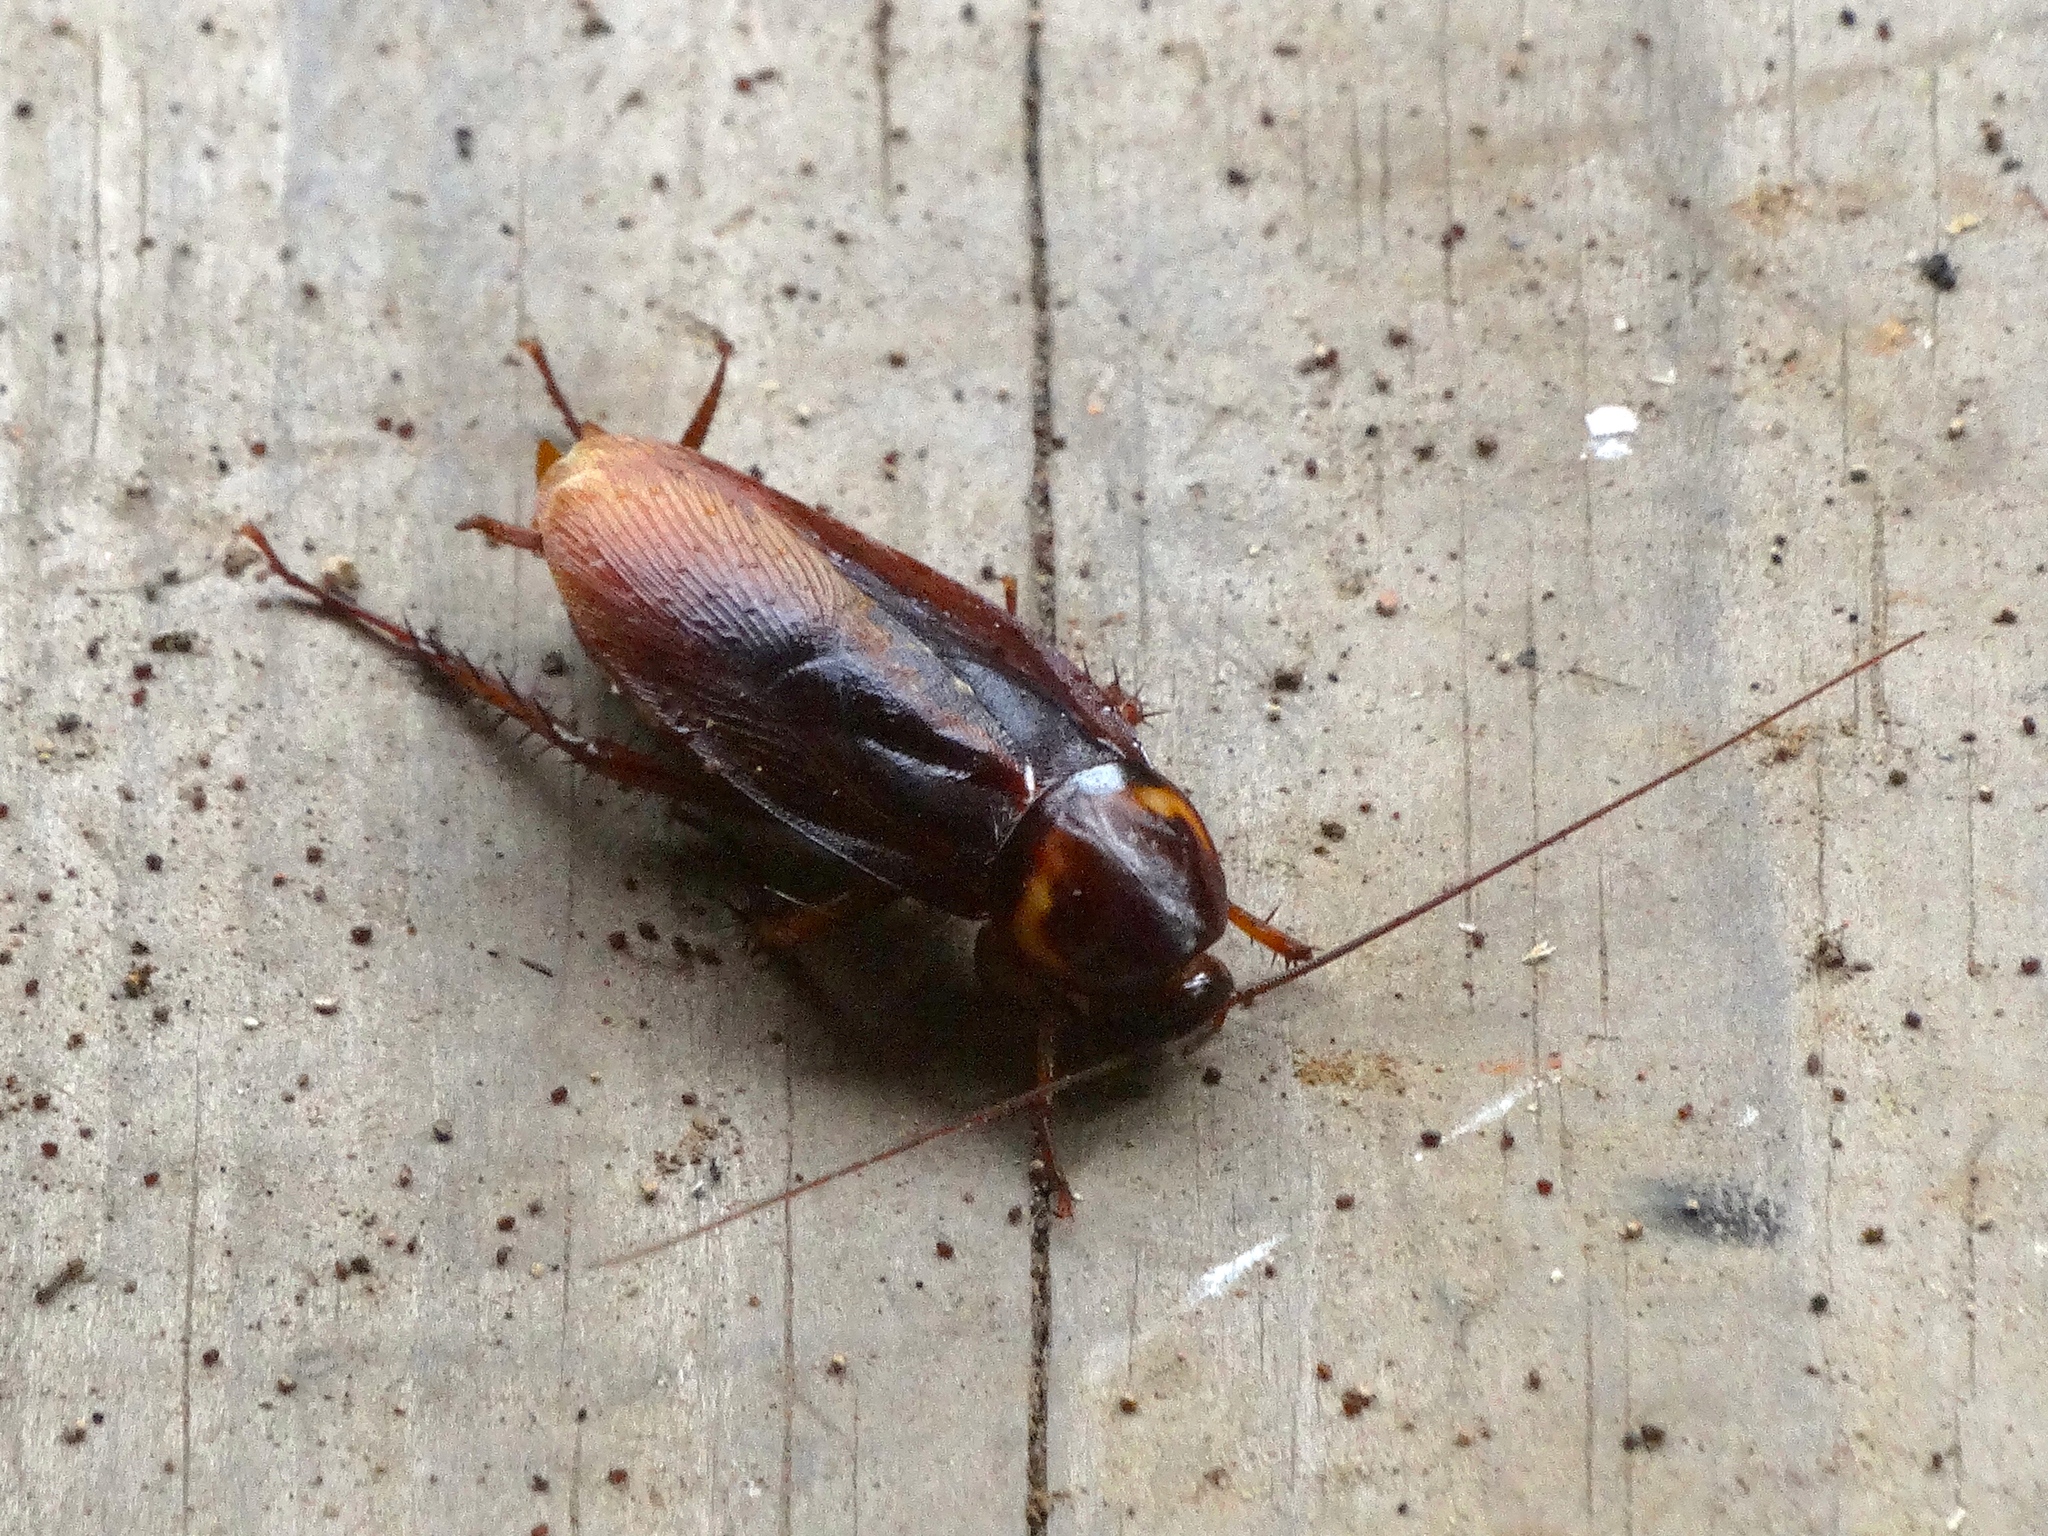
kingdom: Animalia
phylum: Arthropoda
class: Insecta
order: Blattodea
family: Blattidae
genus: Periplaneta
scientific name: Periplaneta americana
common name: American cockroach
